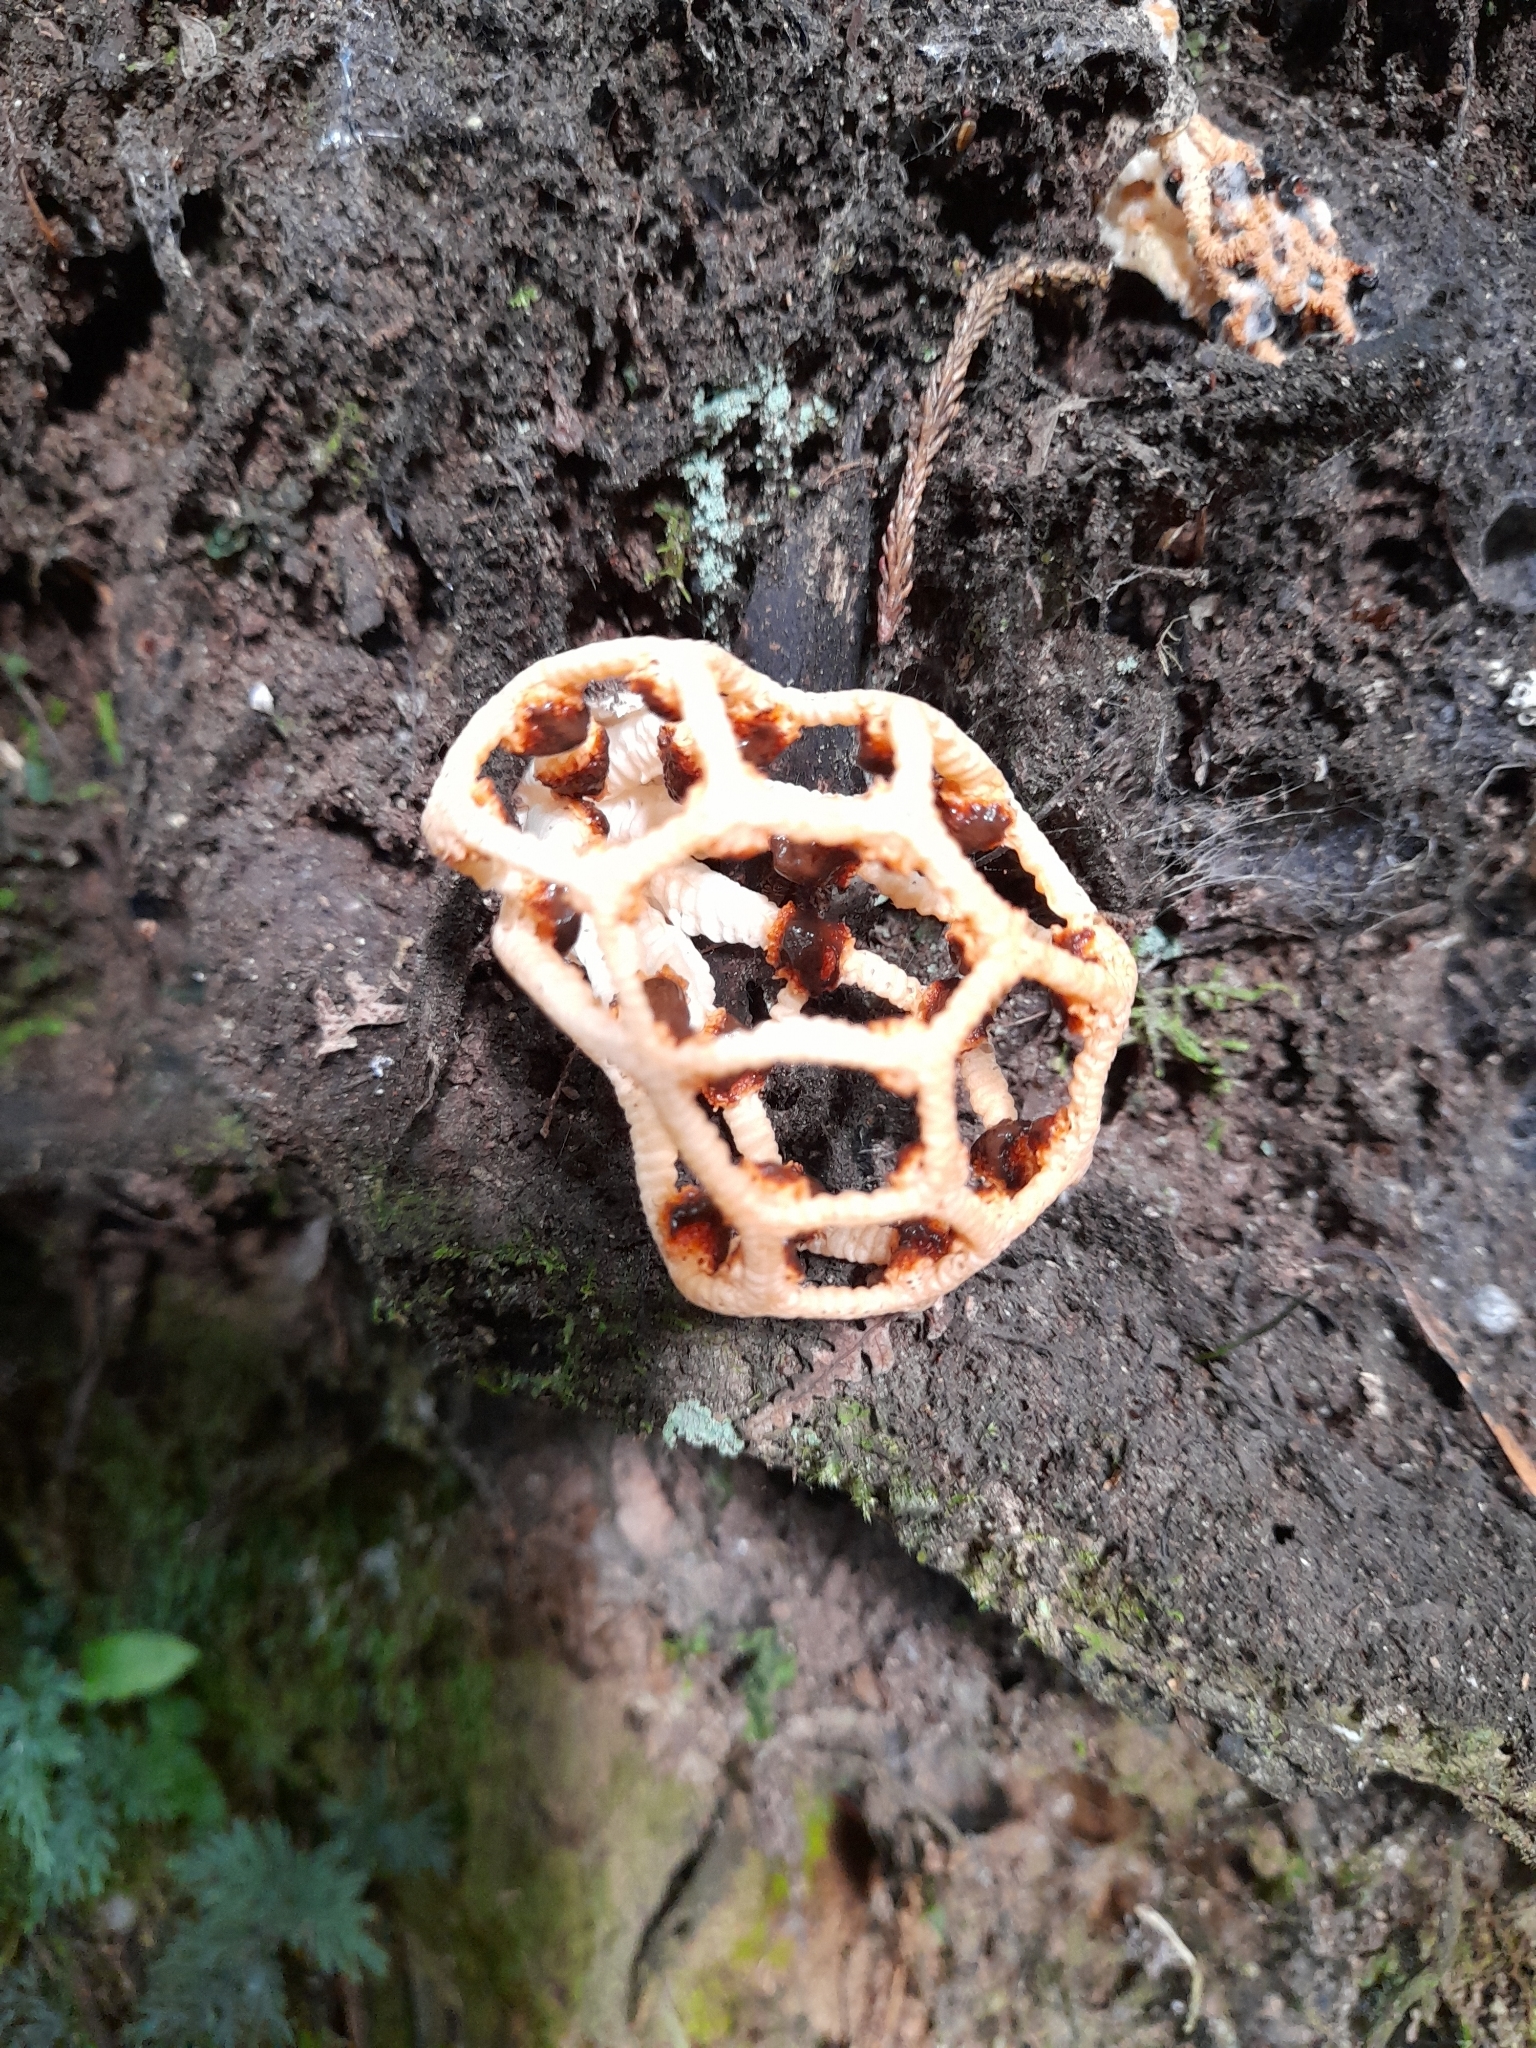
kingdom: Fungi
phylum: Basidiomycota
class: Agaricomycetes
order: Phallales
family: Phallaceae
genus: Clathrus
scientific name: Clathrus chrysomycelinus
